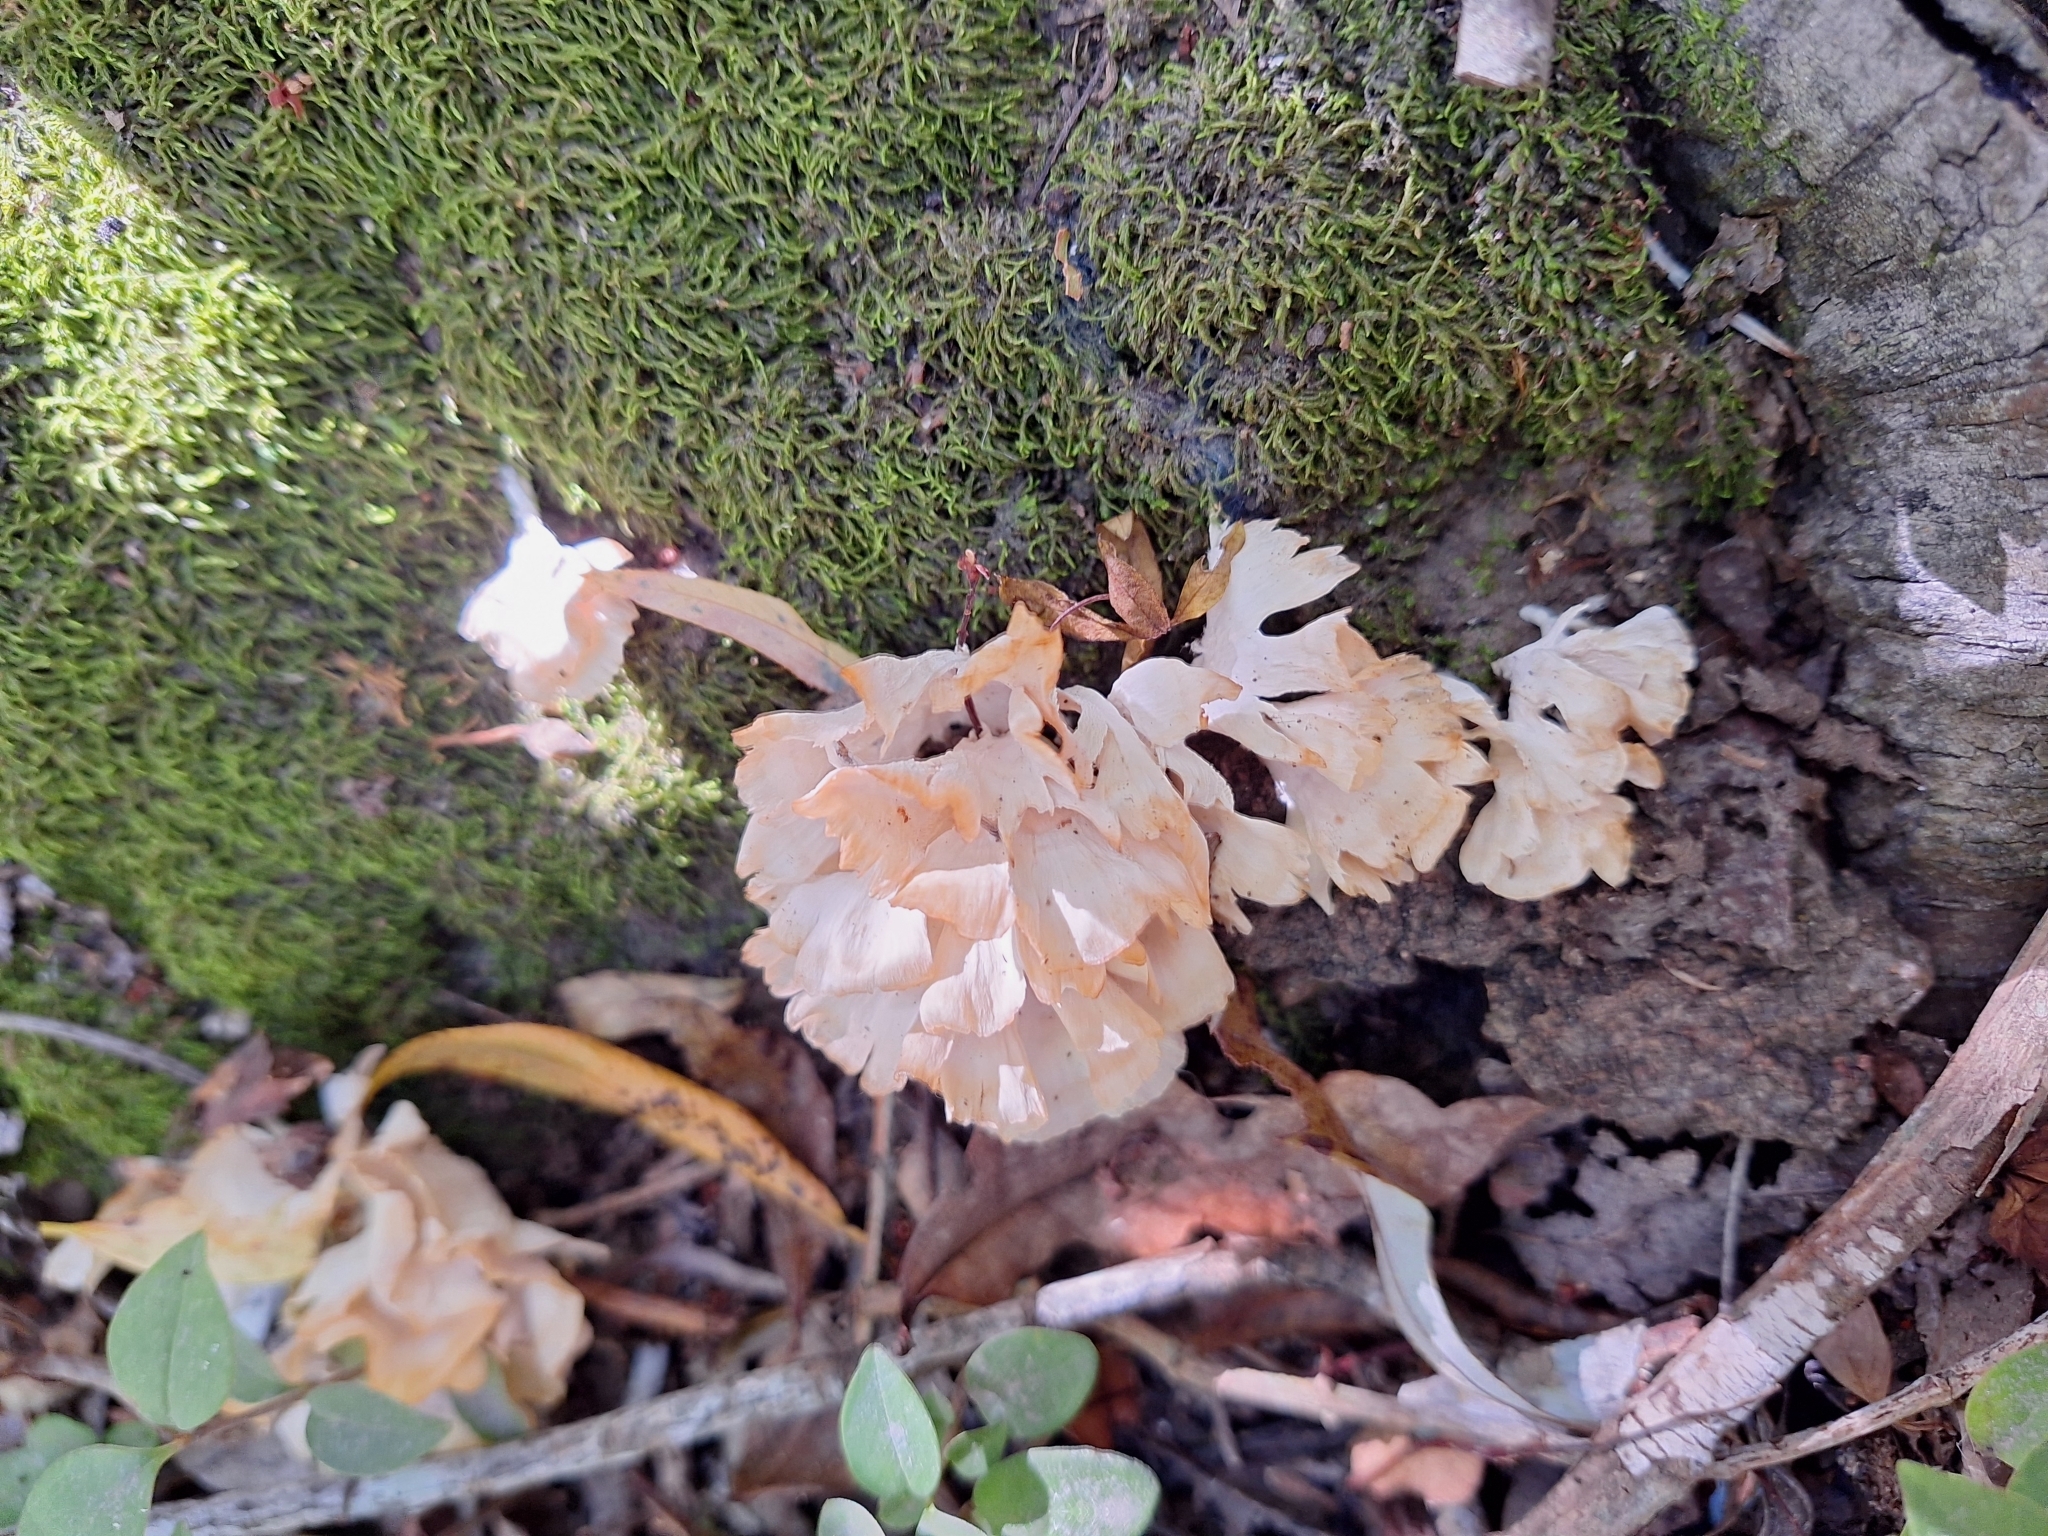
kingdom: Fungi
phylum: Basidiomycota
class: Agaricomycetes
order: Polyporales
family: Irpicaceae
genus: Irpex
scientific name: Irpex rosettiformis
